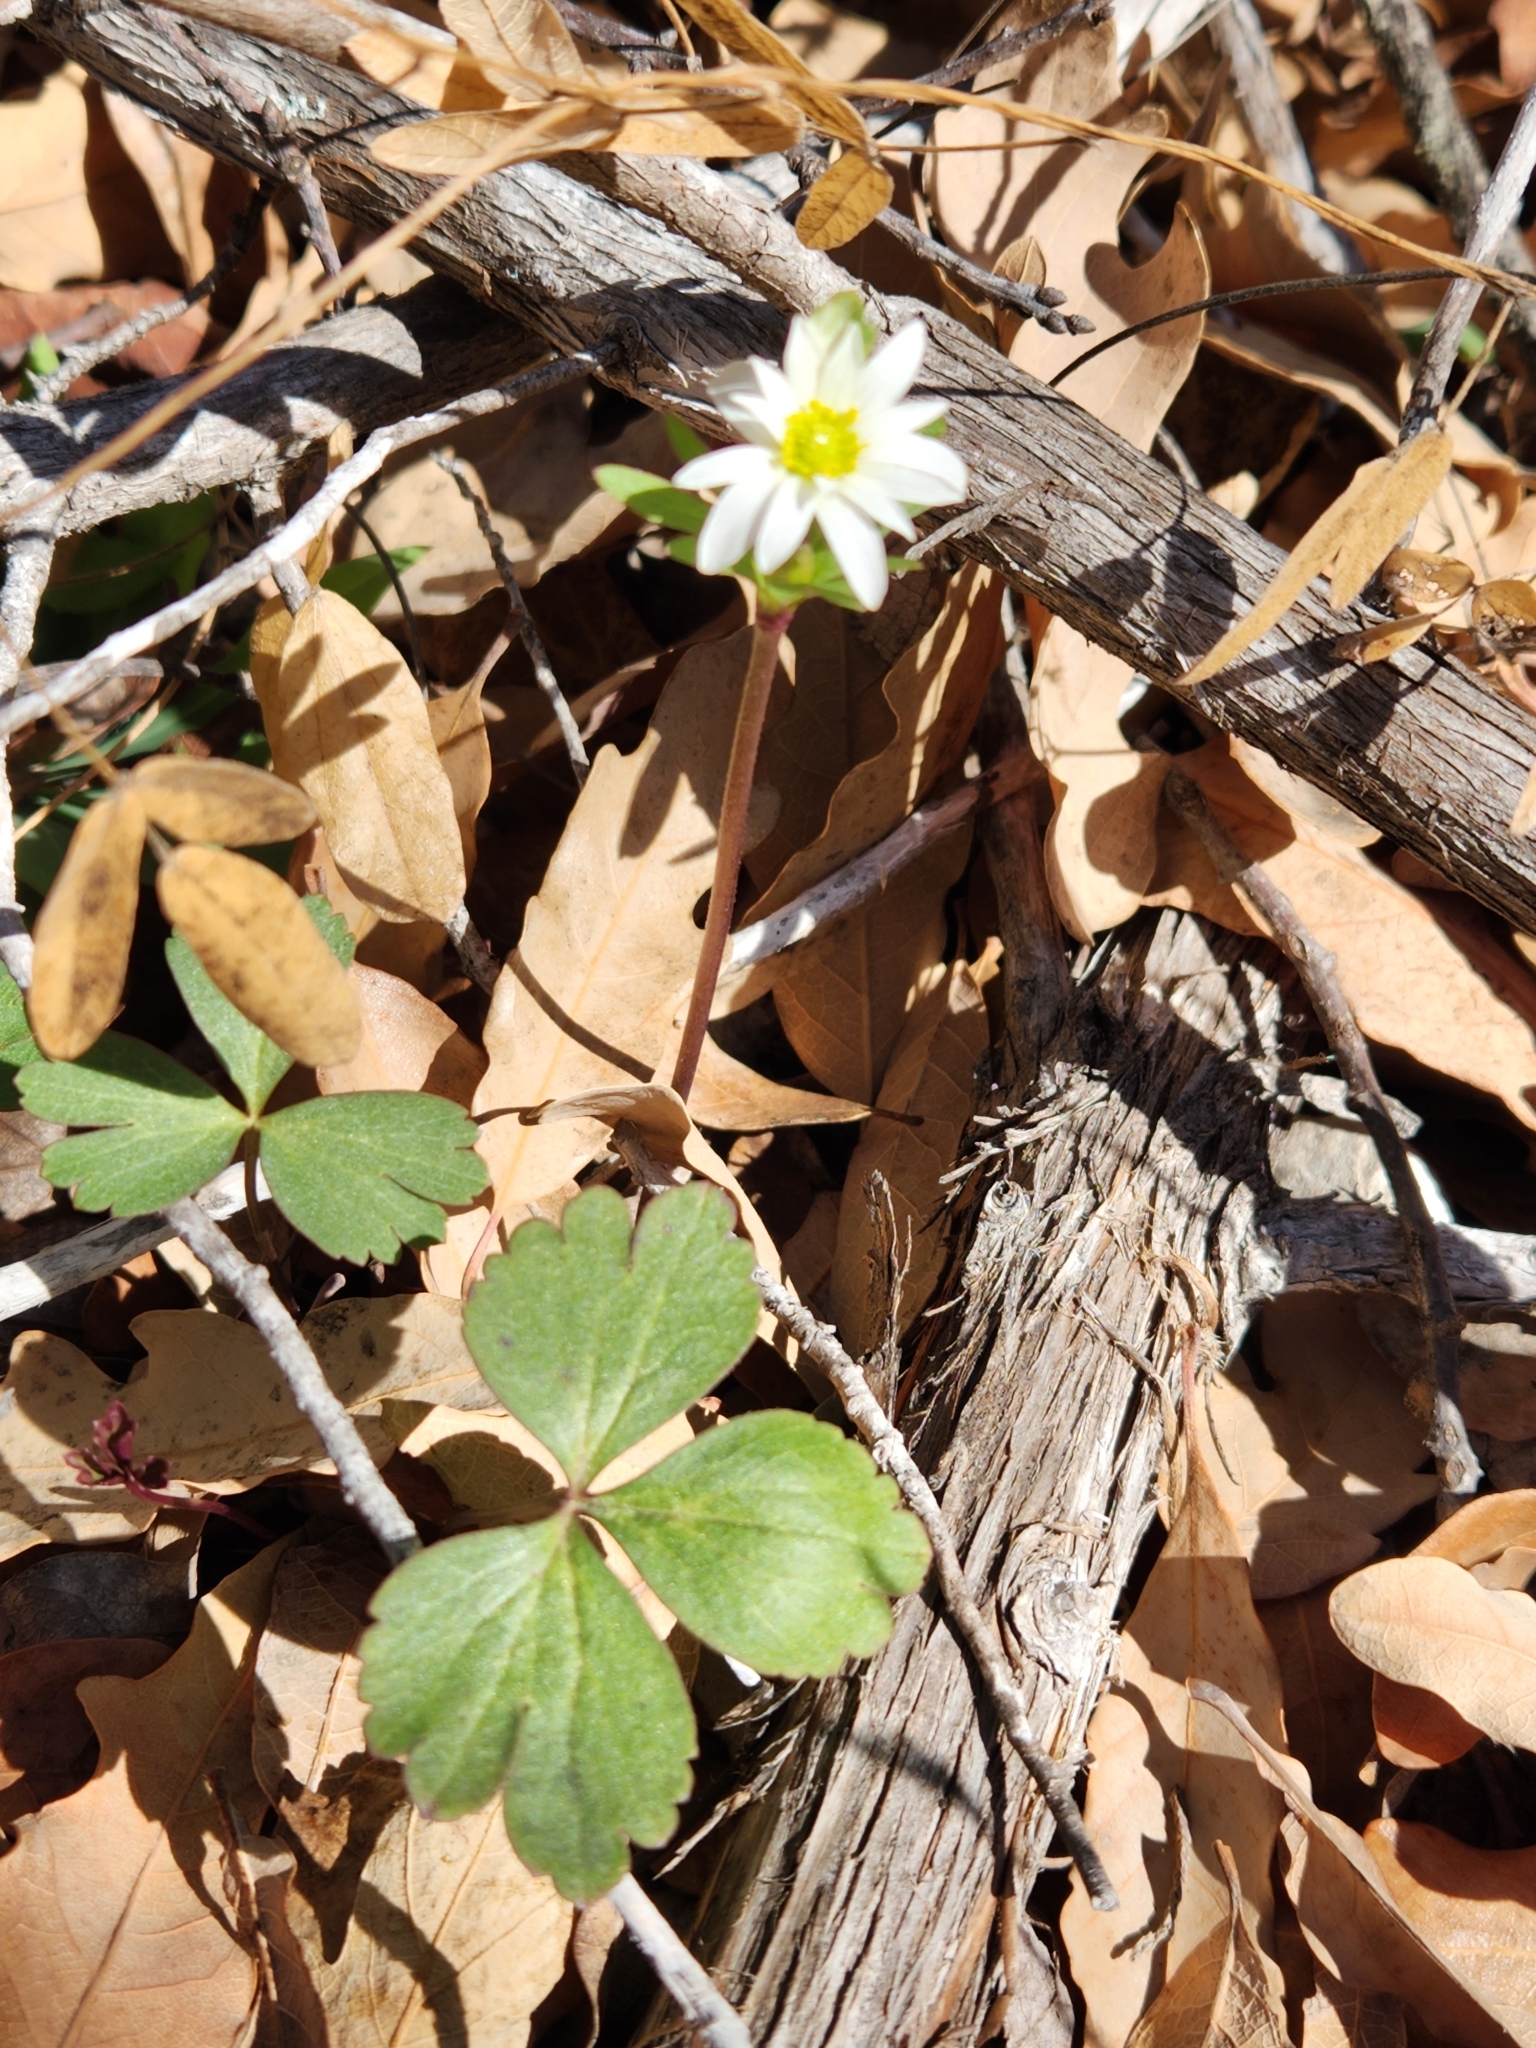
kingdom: Plantae
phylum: Tracheophyta
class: Magnoliopsida
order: Ranunculales
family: Ranunculaceae
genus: Anemone
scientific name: Anemone edwardsiana
